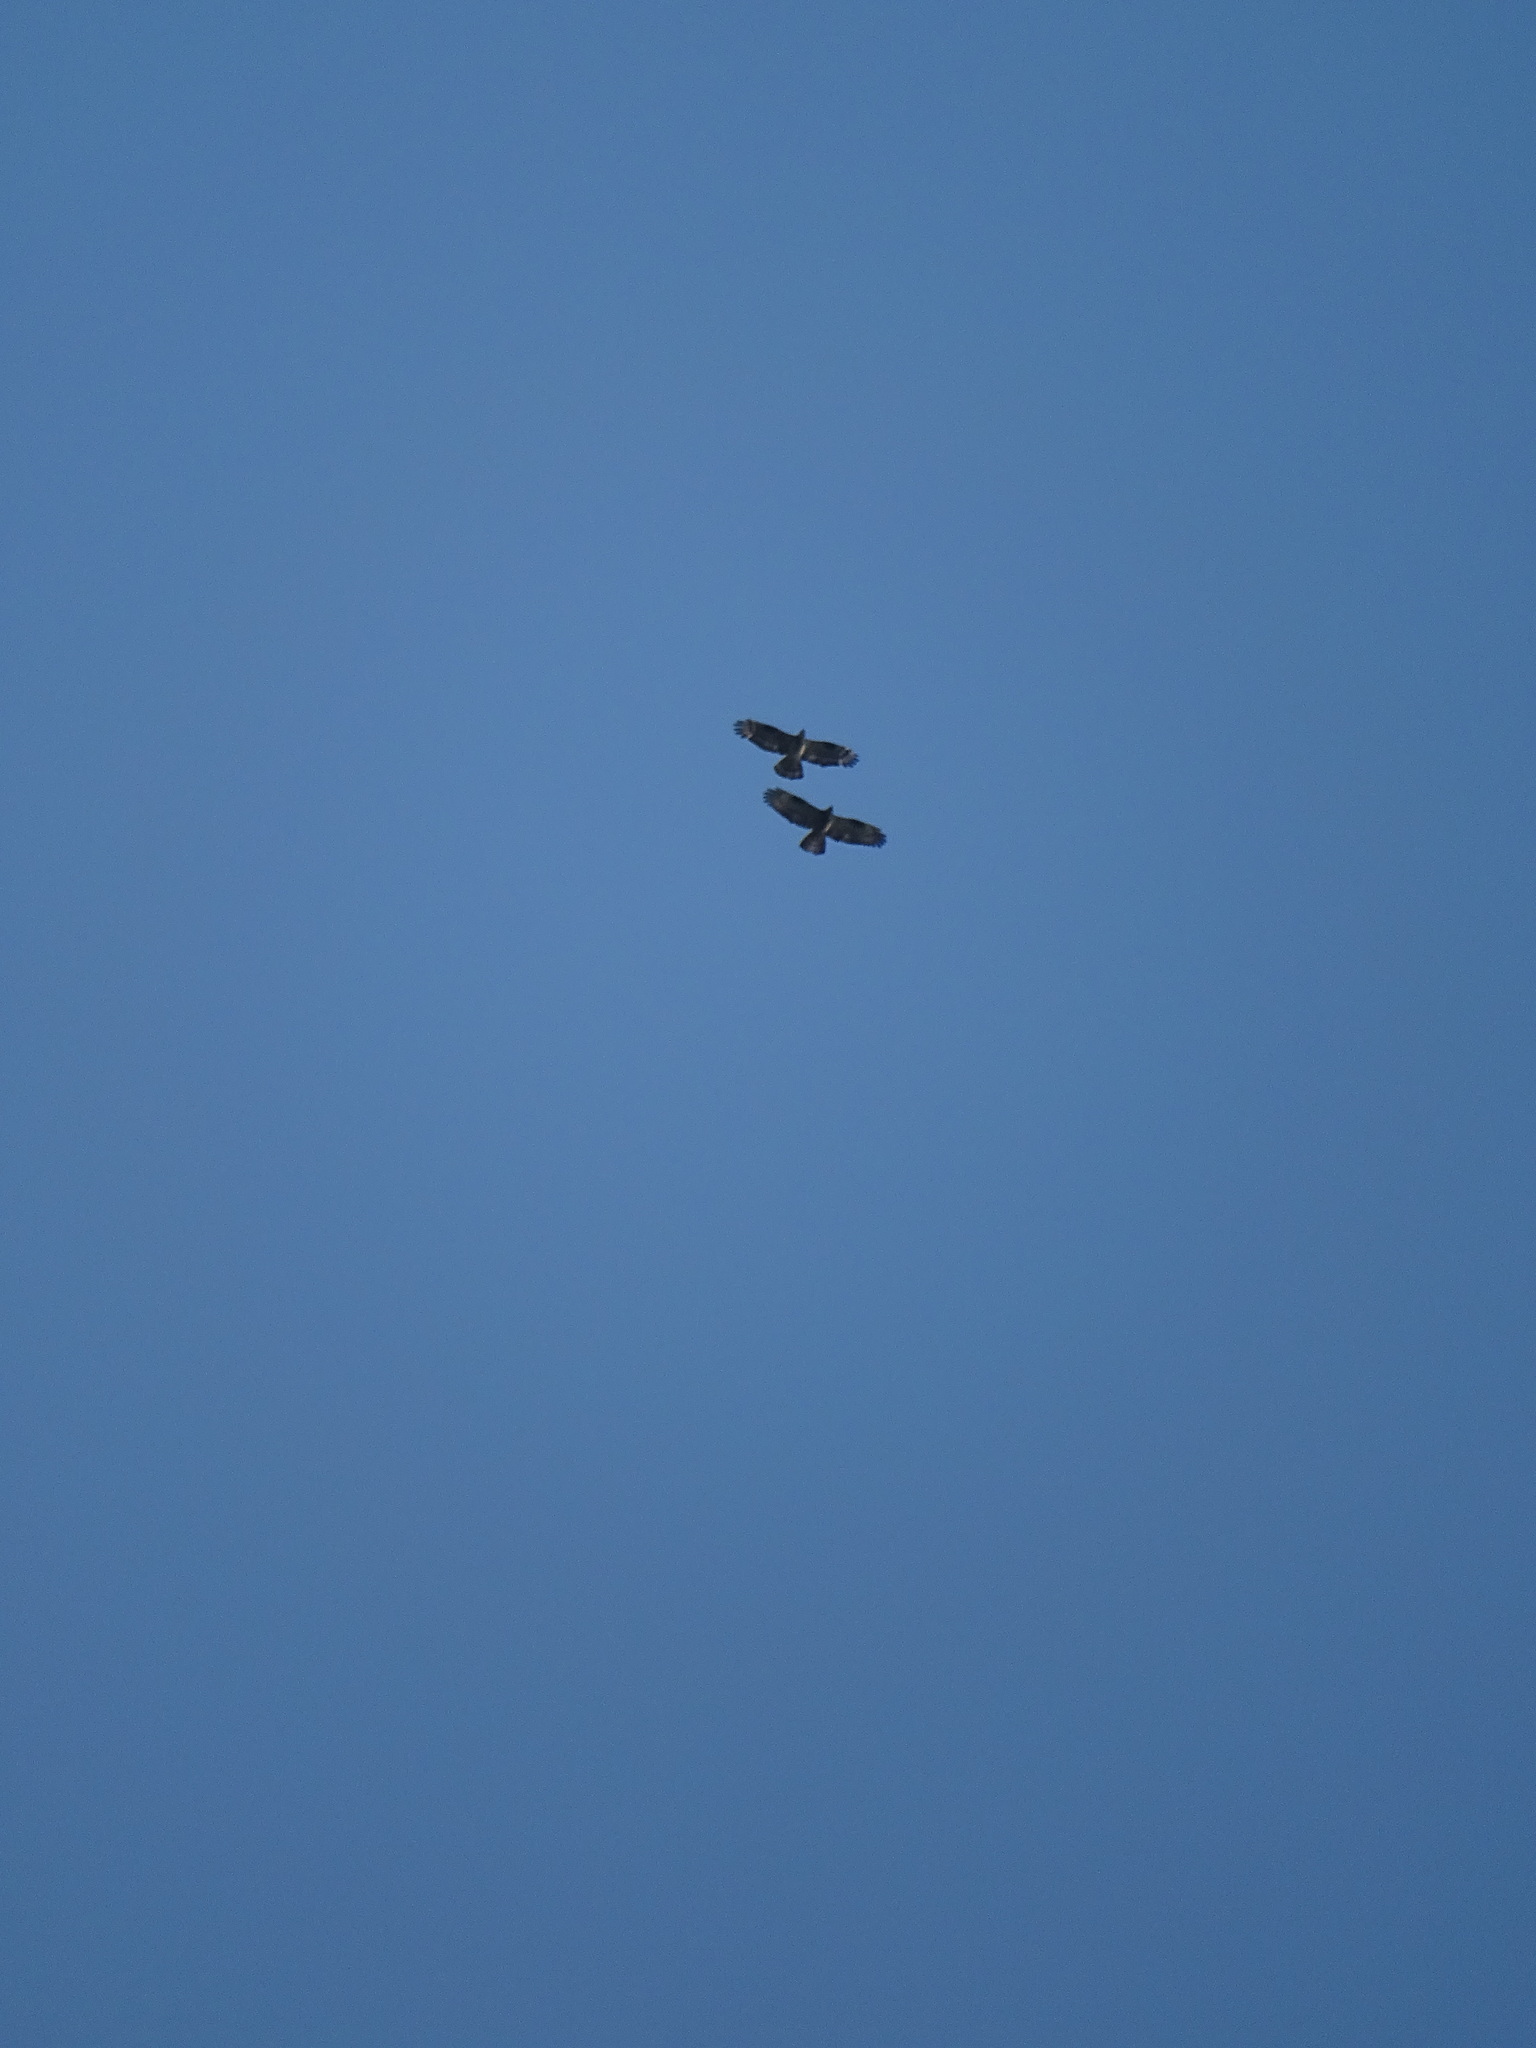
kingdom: Animalia
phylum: Chordata
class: Aves
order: Accipitriformes
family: Accipitridae
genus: Pernis
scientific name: Pernis apivorus
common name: European honey buzzard
